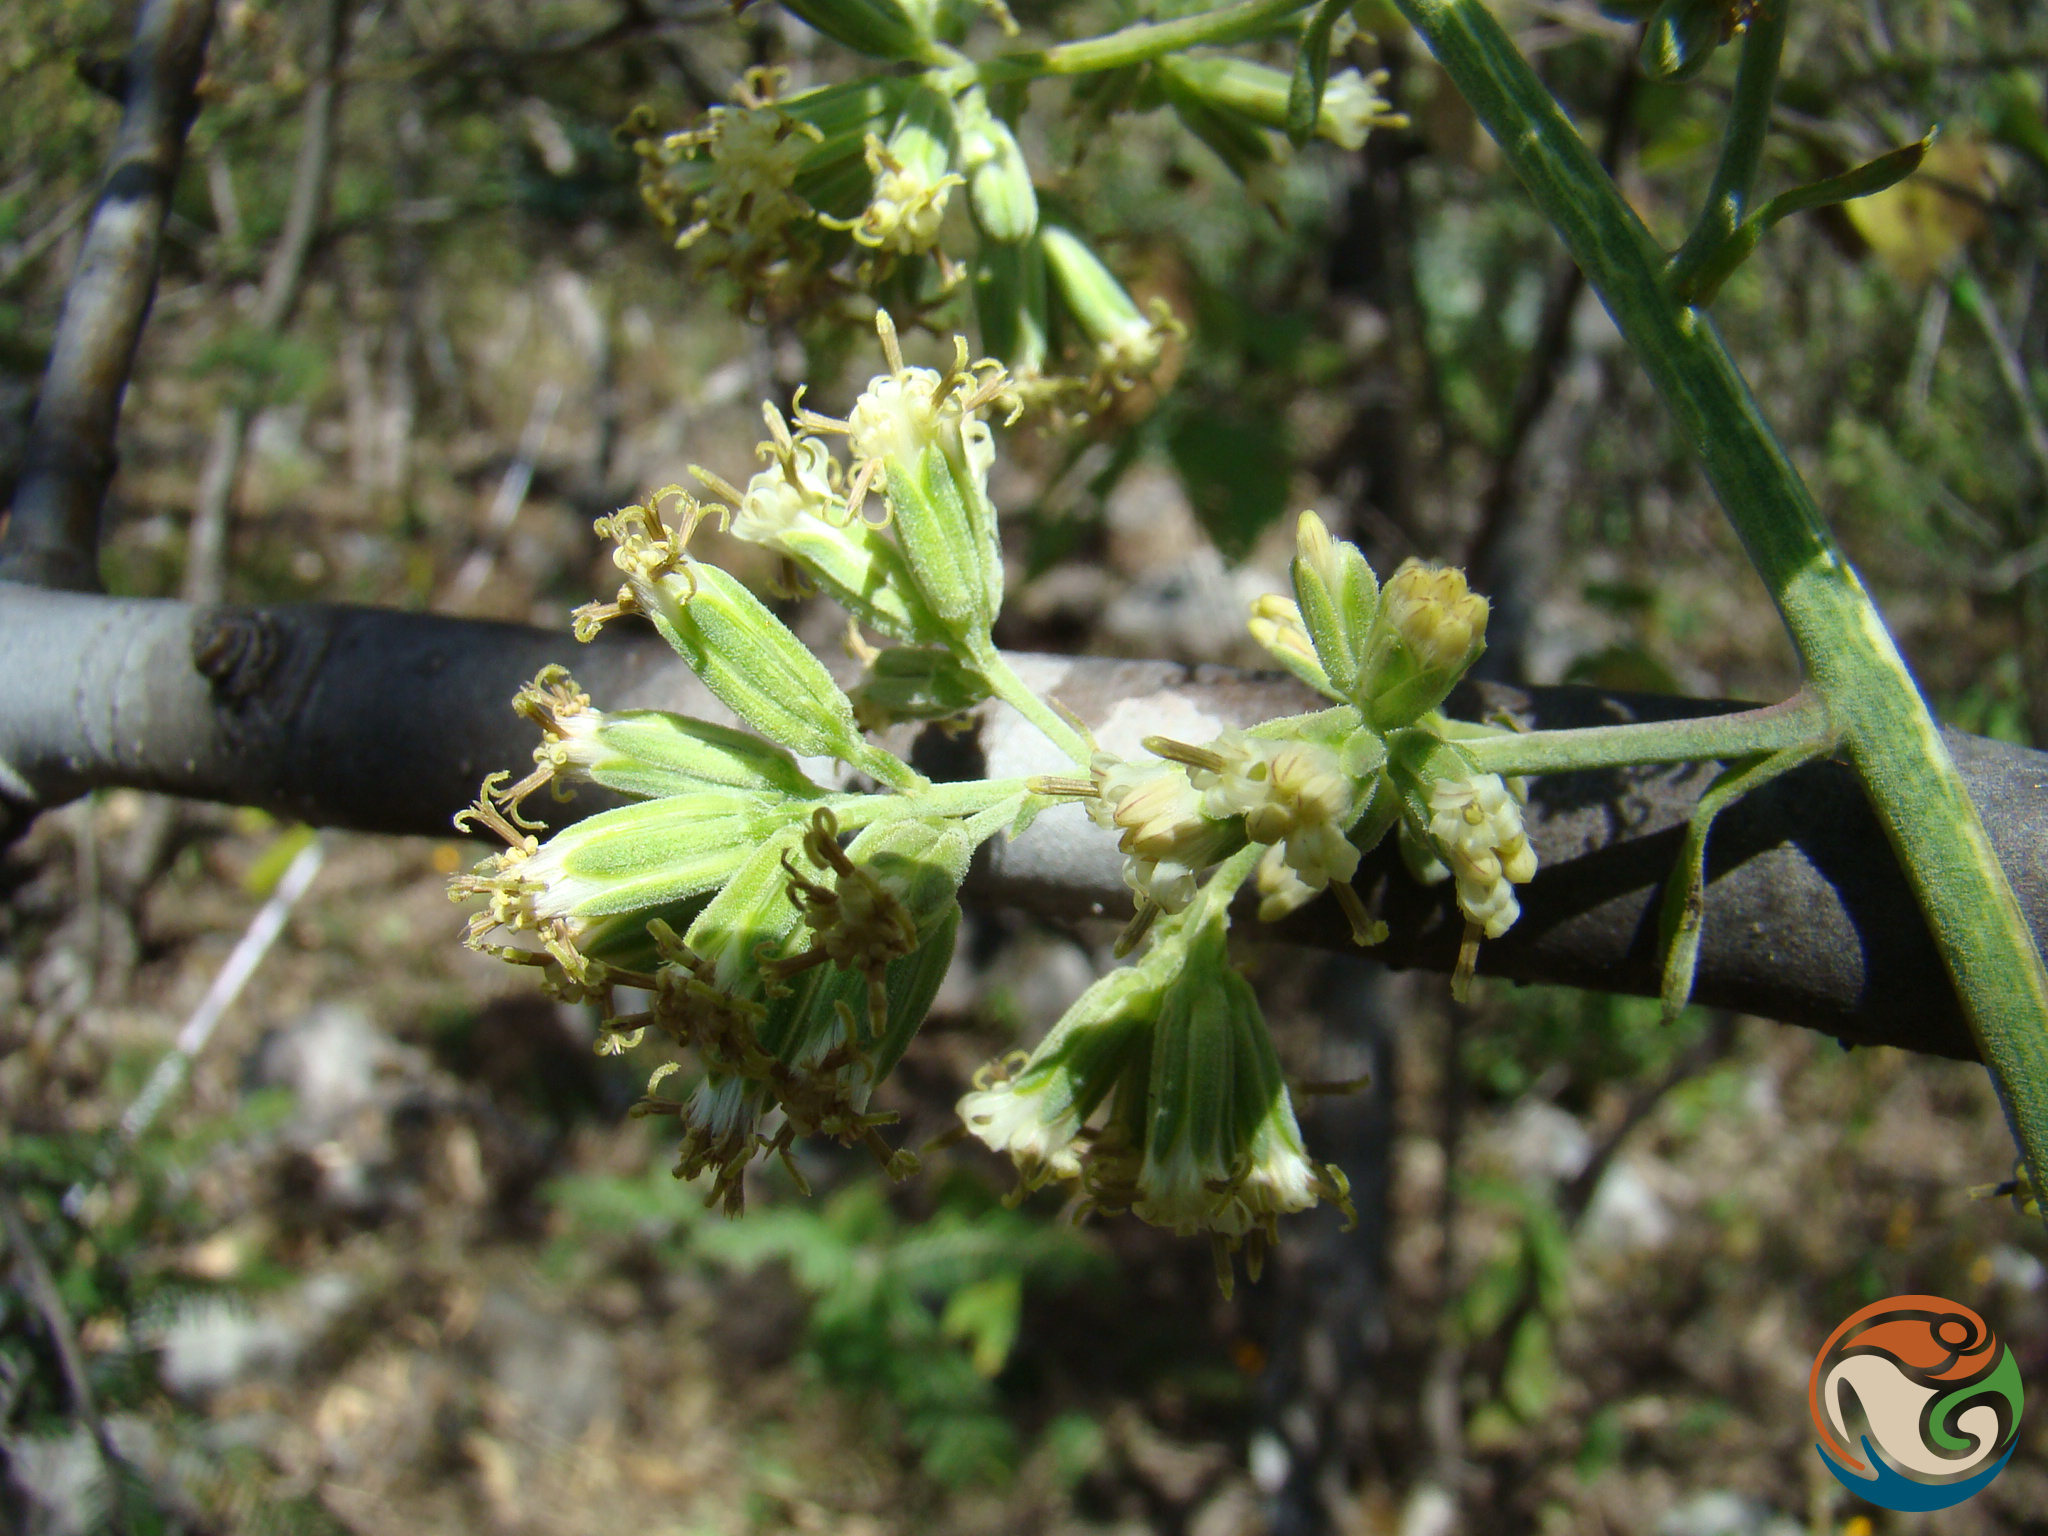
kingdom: Plantae
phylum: Tracheophyta
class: Magnoliopsida
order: Asterales
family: Asteraceae
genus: Psacalium
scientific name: Psacalium megaphyllum
